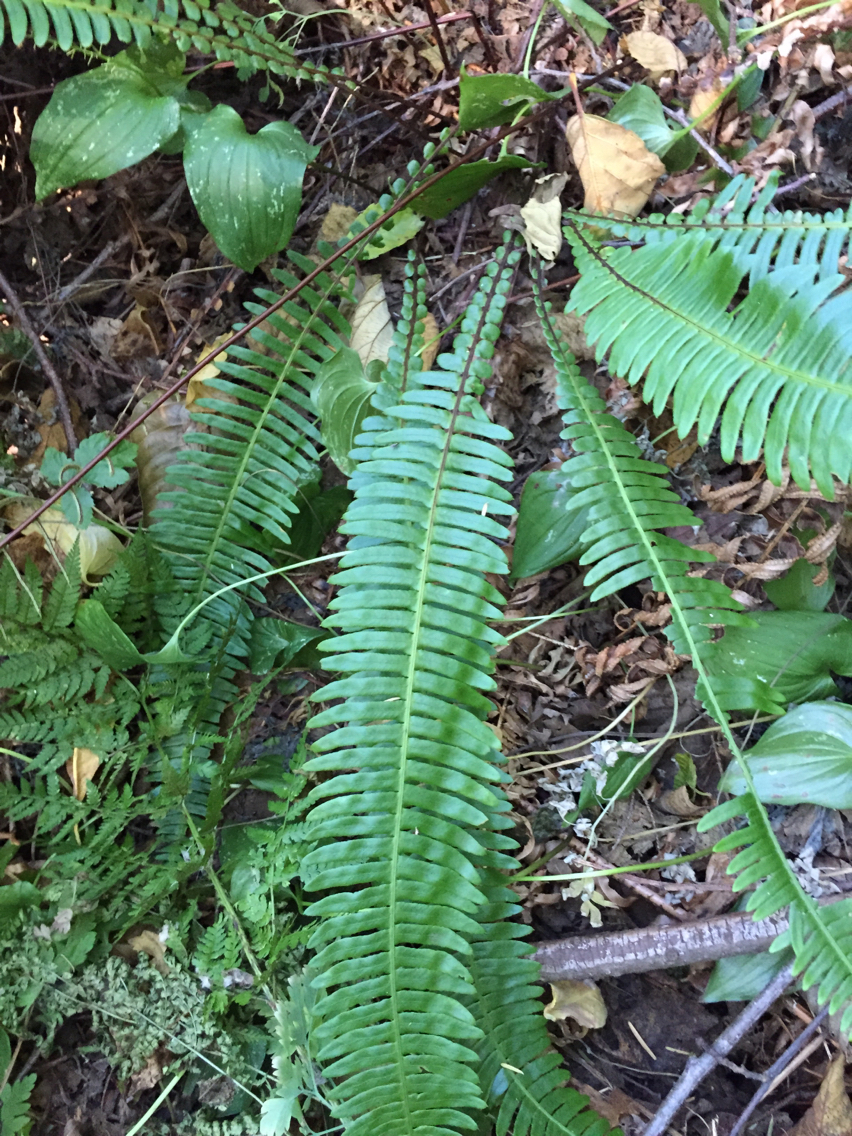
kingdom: Plantae
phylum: Tracheophyta
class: Polypodiopsida
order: Polypodiales
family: Blechnaceae
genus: Struthiopteris
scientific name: Struthiopteris spicant
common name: Deer fern
